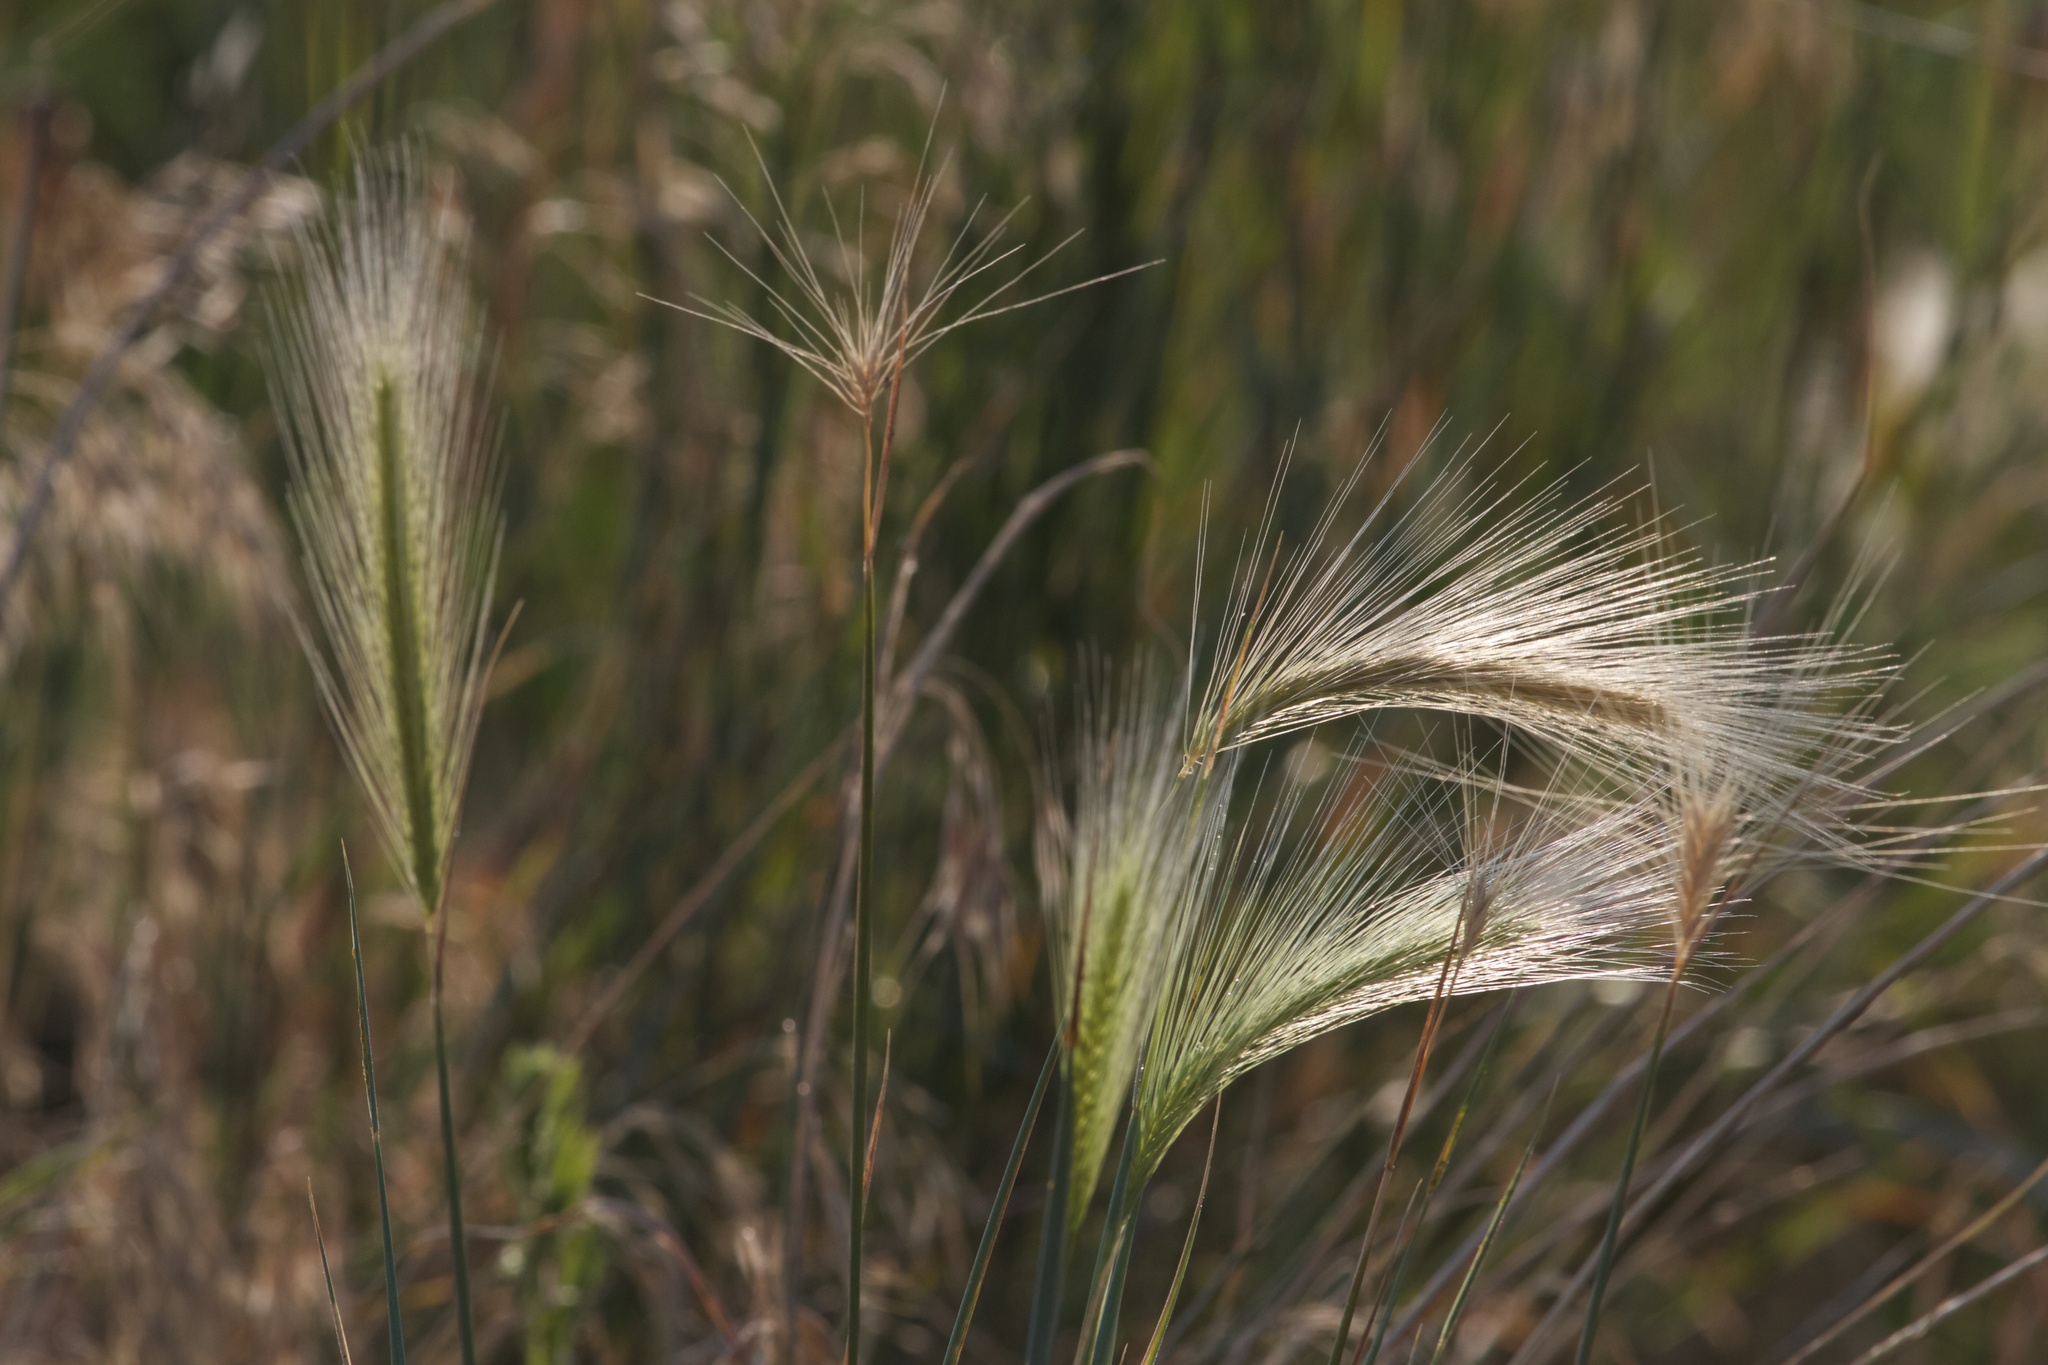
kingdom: Plantae
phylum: Tracheophyta
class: Liliopsida
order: Poales
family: Poaceae
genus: Hordeum
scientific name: Hordeum jubatum
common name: Foxtail barley
